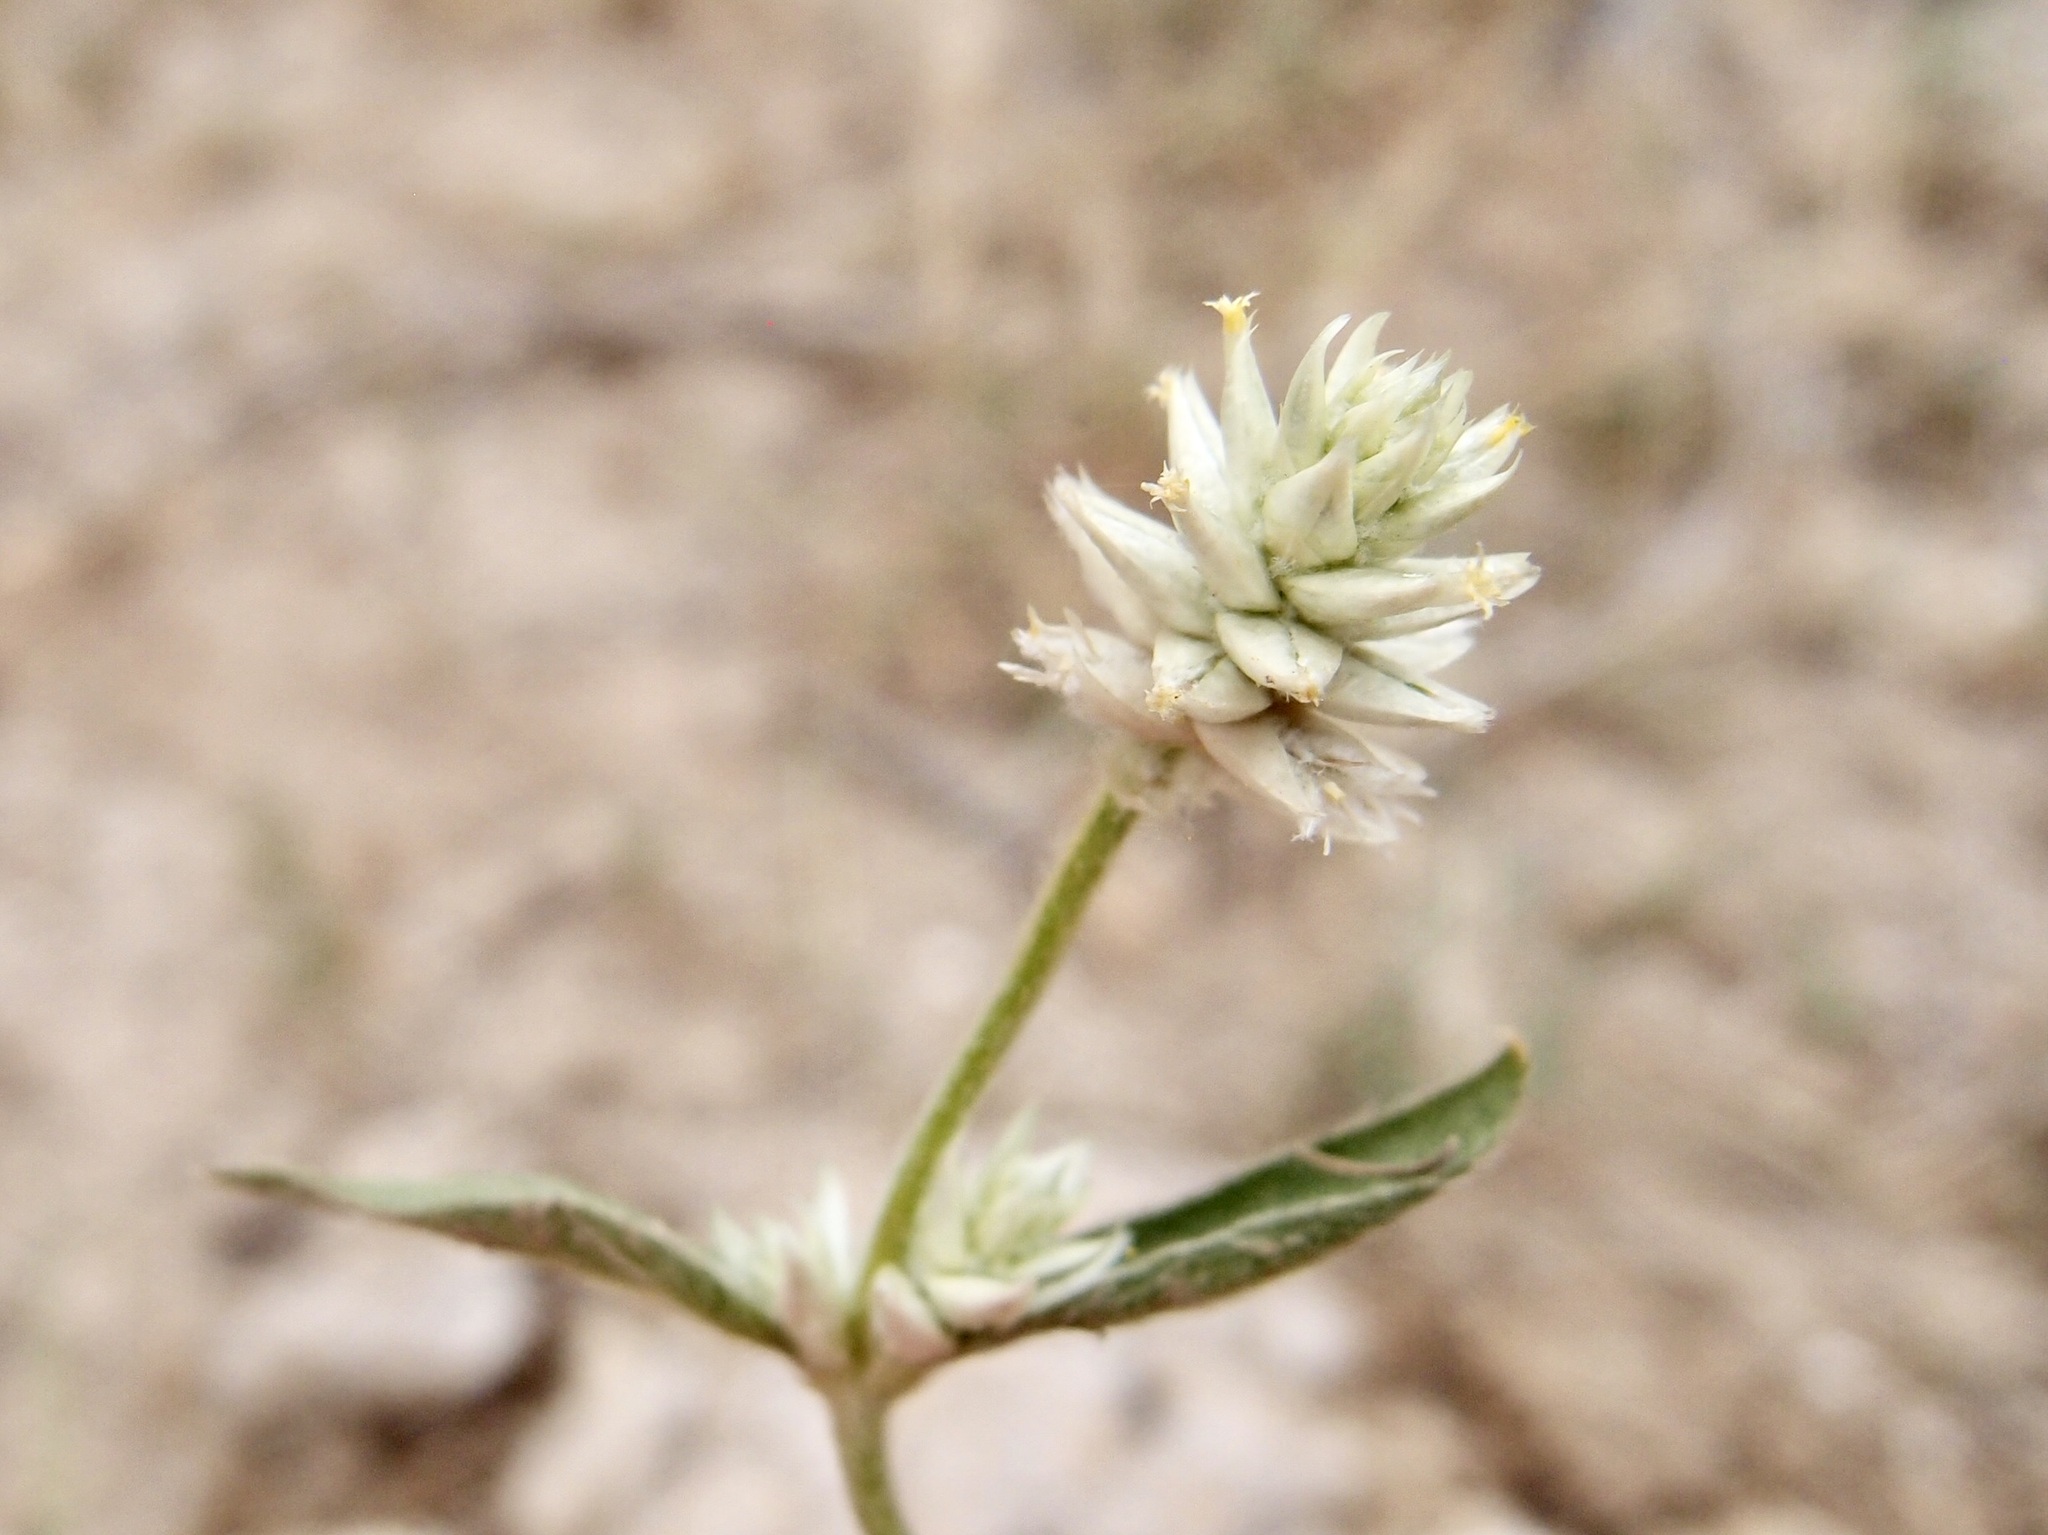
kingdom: Plantae
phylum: Tracheophyta
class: Magnoliopsida
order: Caryophyllales
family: Amaranthaceae
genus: Gomphrena
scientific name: Gomphrena sonorae
